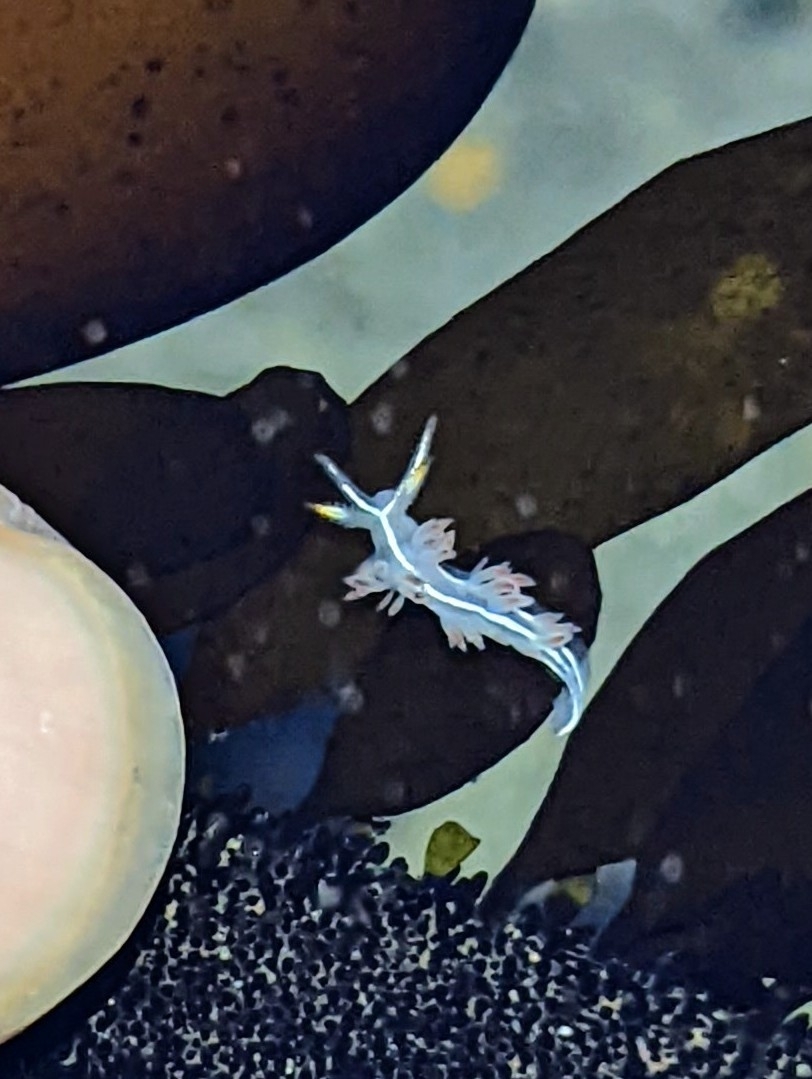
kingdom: Animalia
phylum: Mollusca
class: Gastropoda
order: Nudibranchia
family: Coryphellidae
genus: Coryphella
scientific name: Coryphella trilineata
